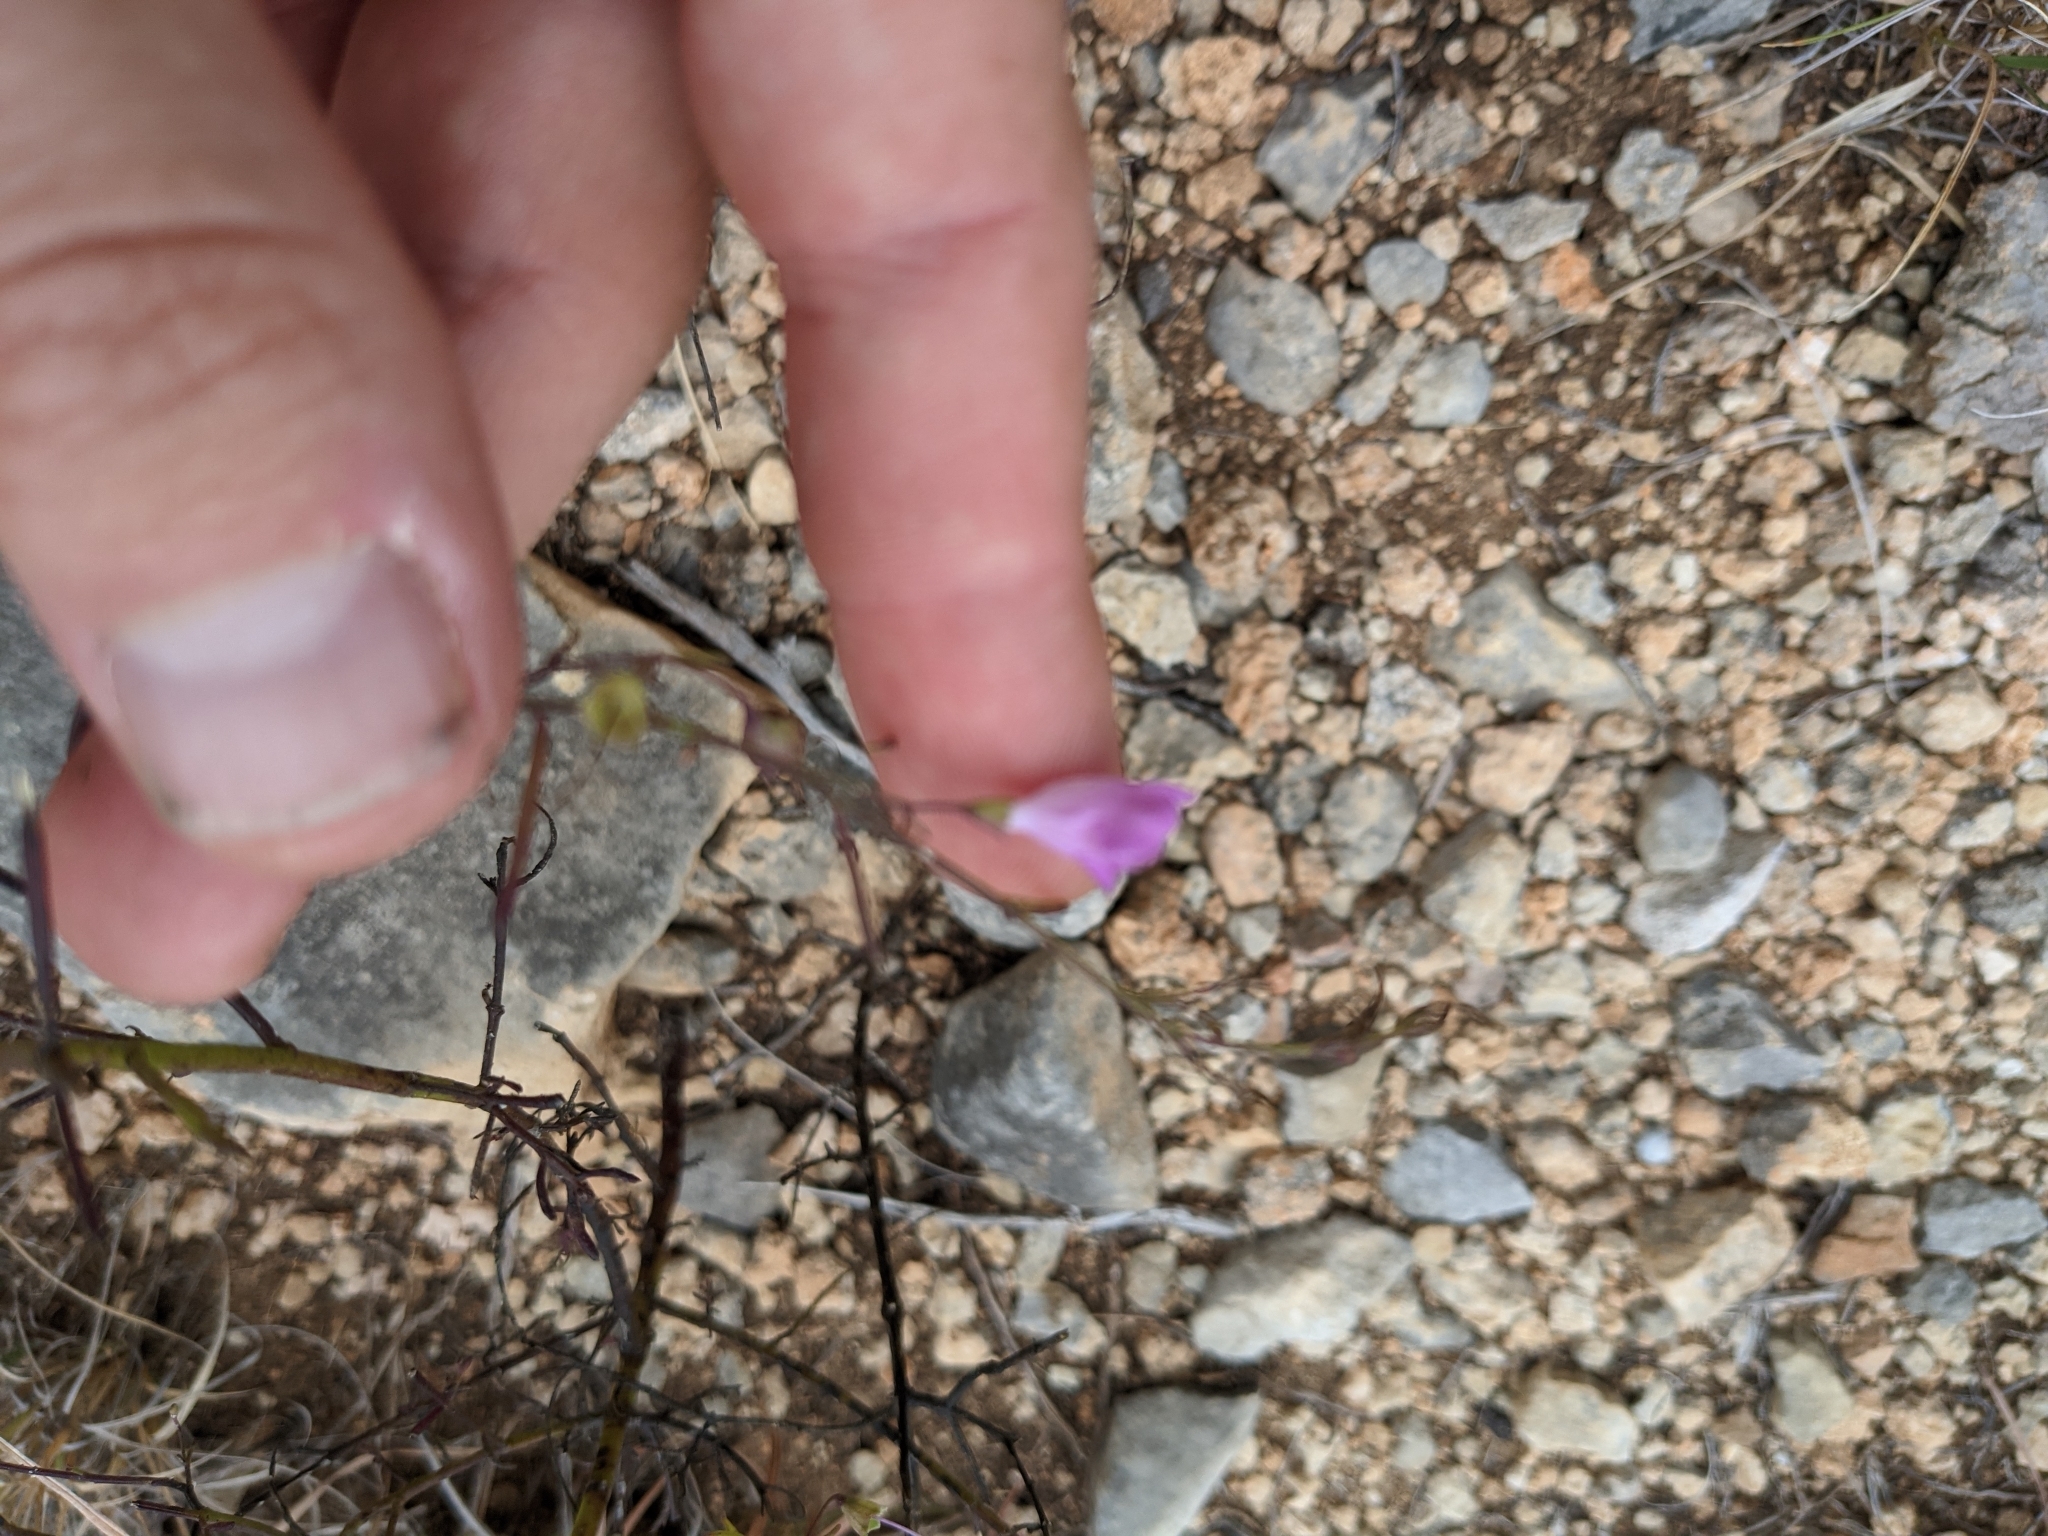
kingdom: Plantae
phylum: Tracheophyta
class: Magnoliopsida
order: Lamiales
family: Orobanchaceae
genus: Agalinis
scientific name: Agalinis edwardsiana
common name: Plateau-gerardia
